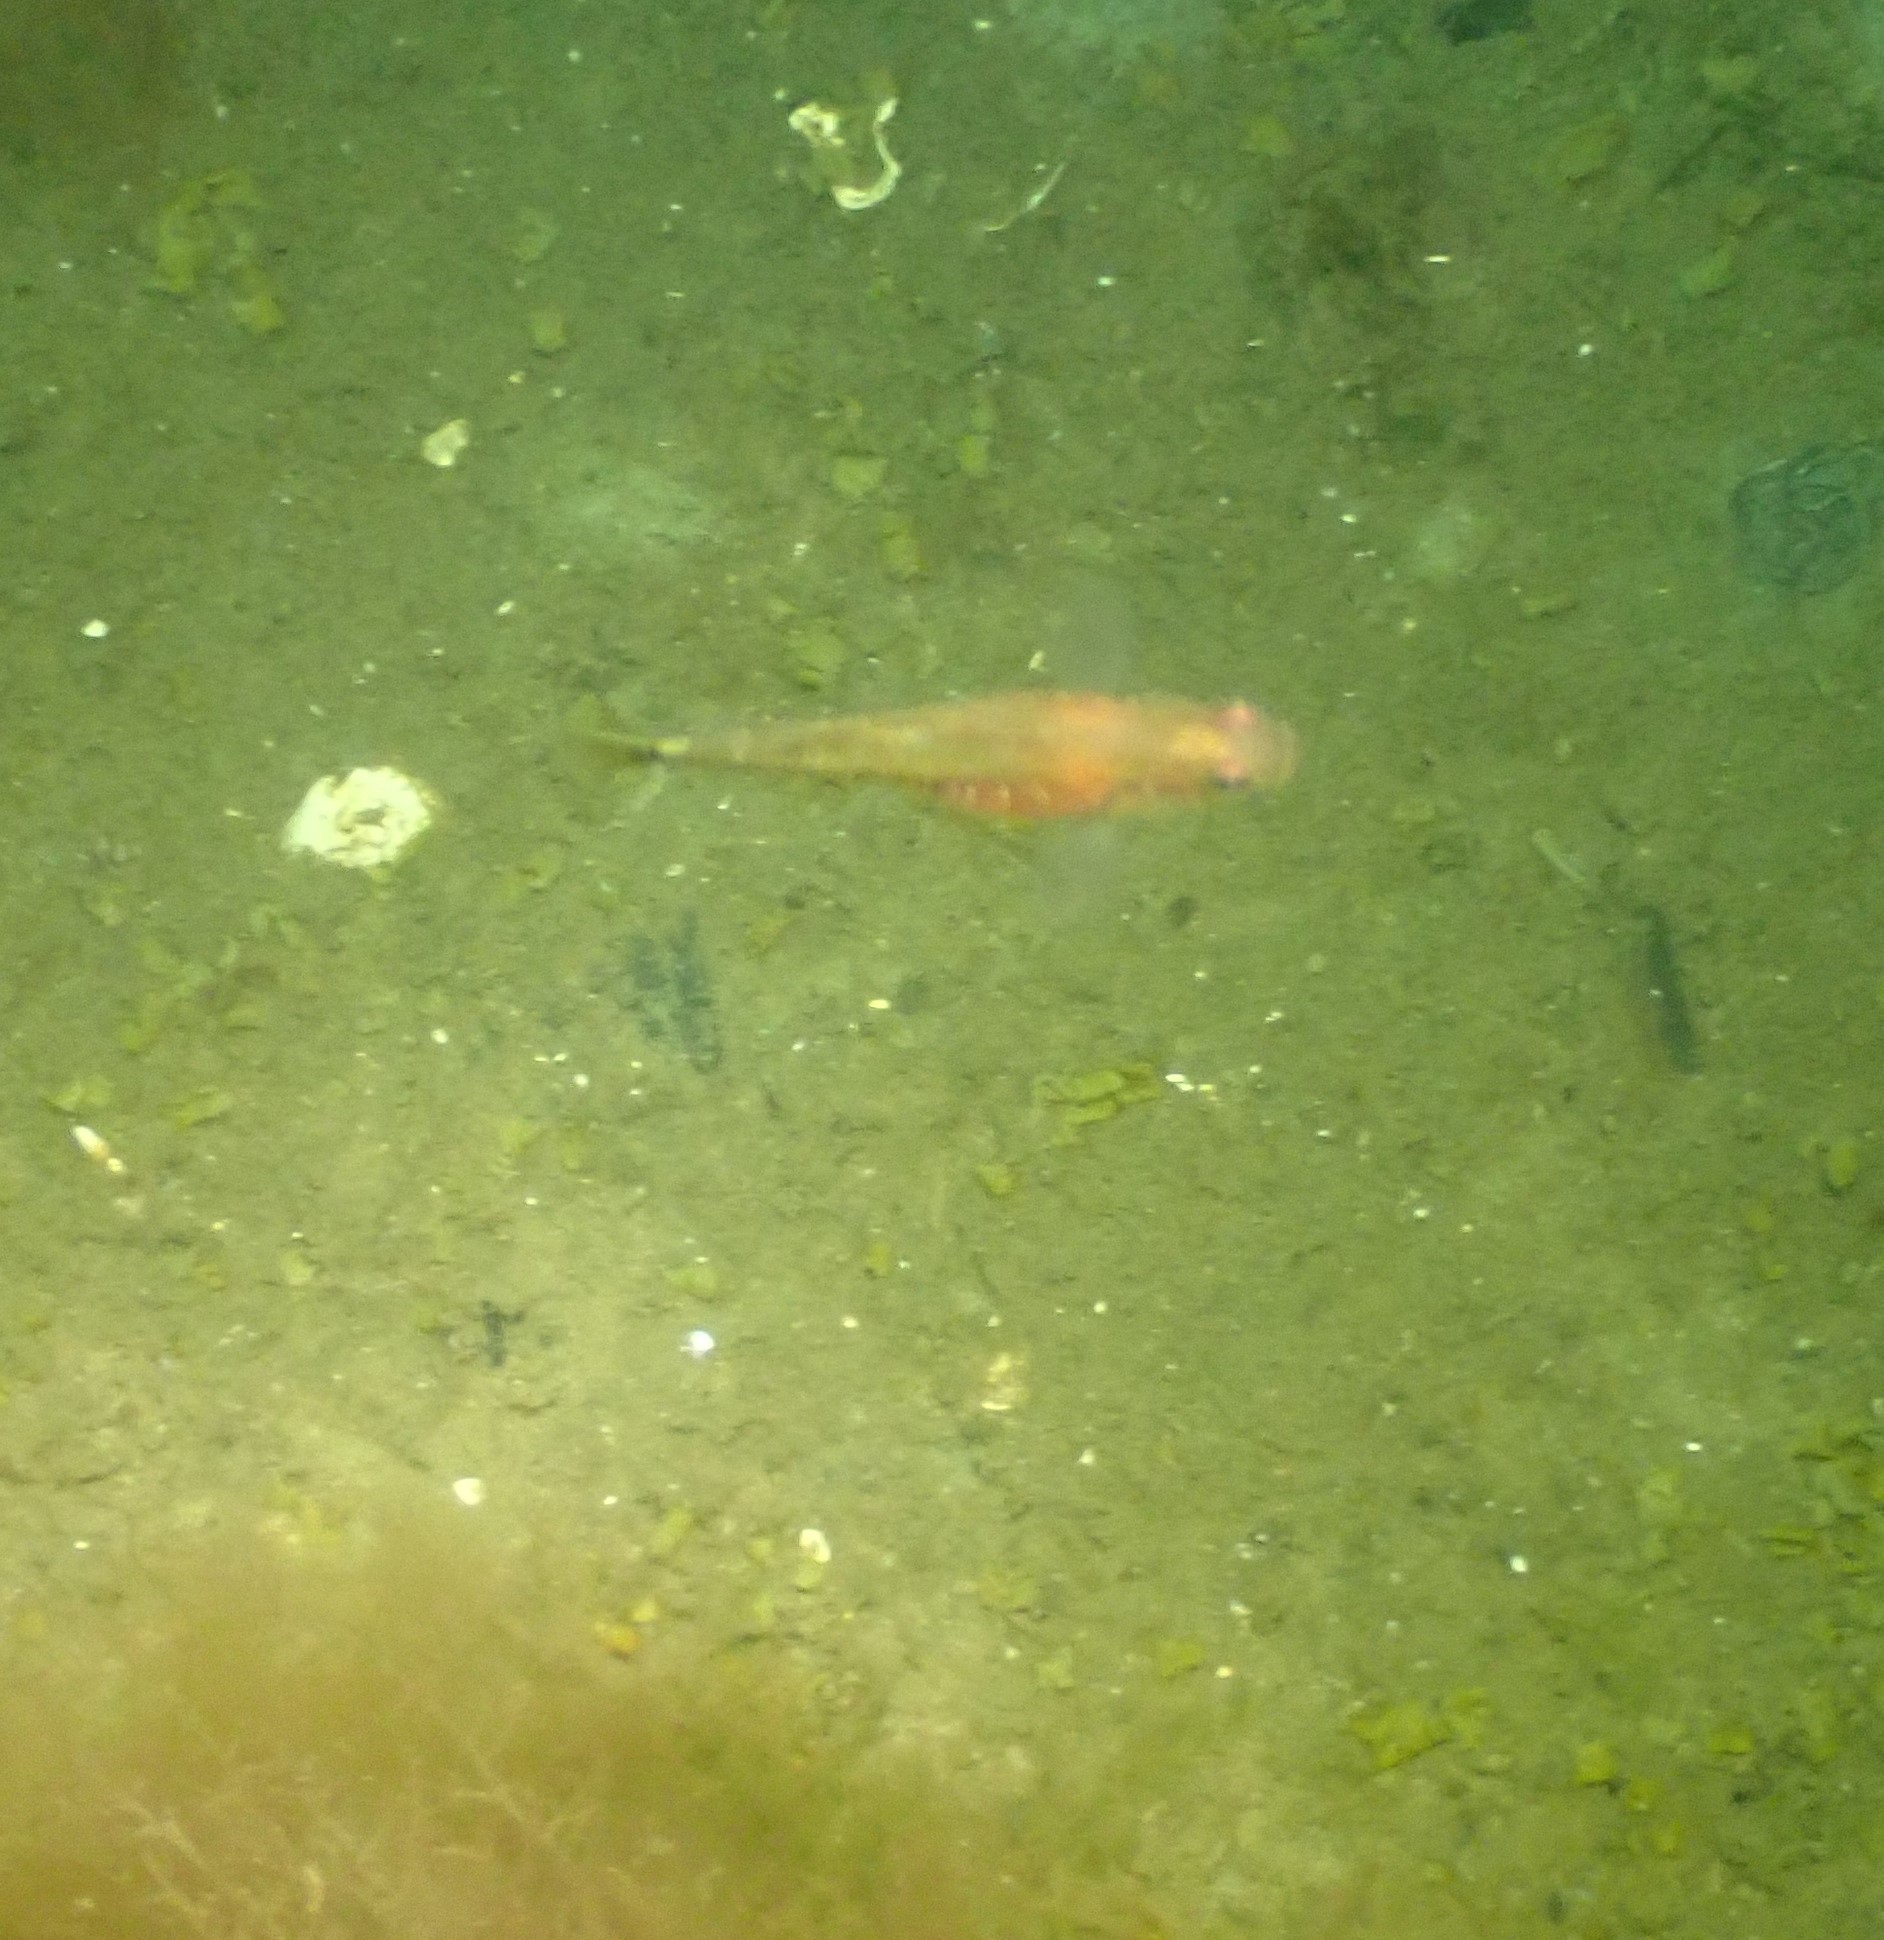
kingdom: Animalia
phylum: Chordata
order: Perciformes
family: Gobiidae
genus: Gobiusculus
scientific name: Gobiusculus flavescens
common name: Two-spotted goby
